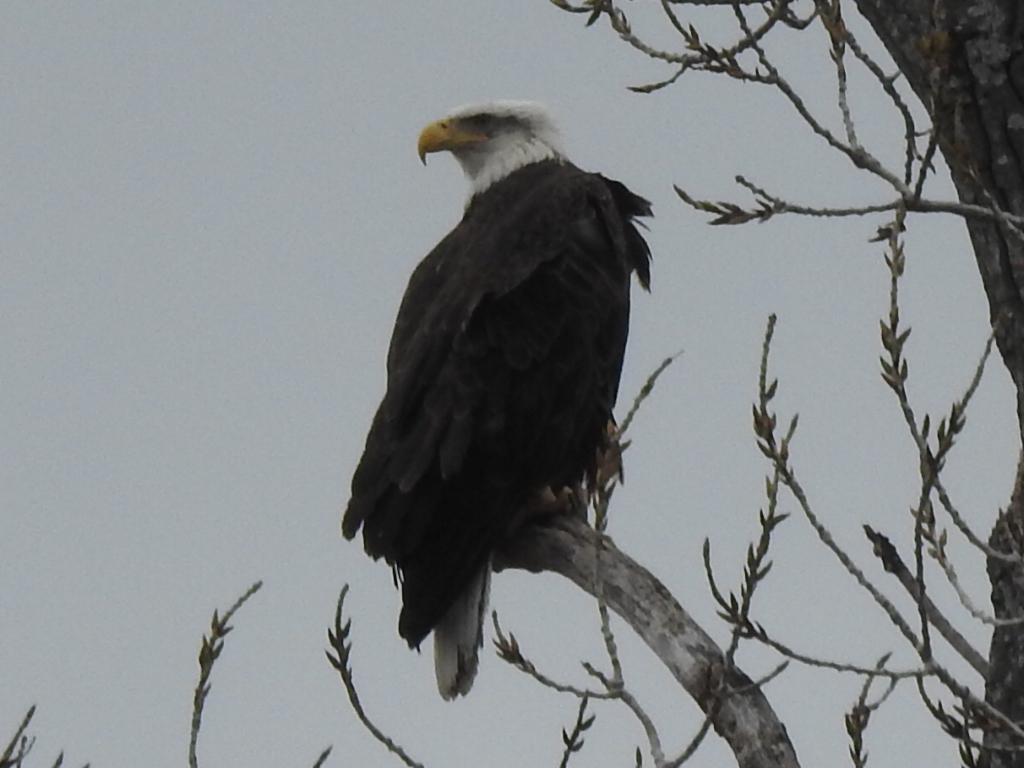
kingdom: Animalia
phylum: Chordata
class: Aves
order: Accipitriformes
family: Accipitridae
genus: Haliaeetus
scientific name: Haliaeetus leucocephalus
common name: Bald eagle
